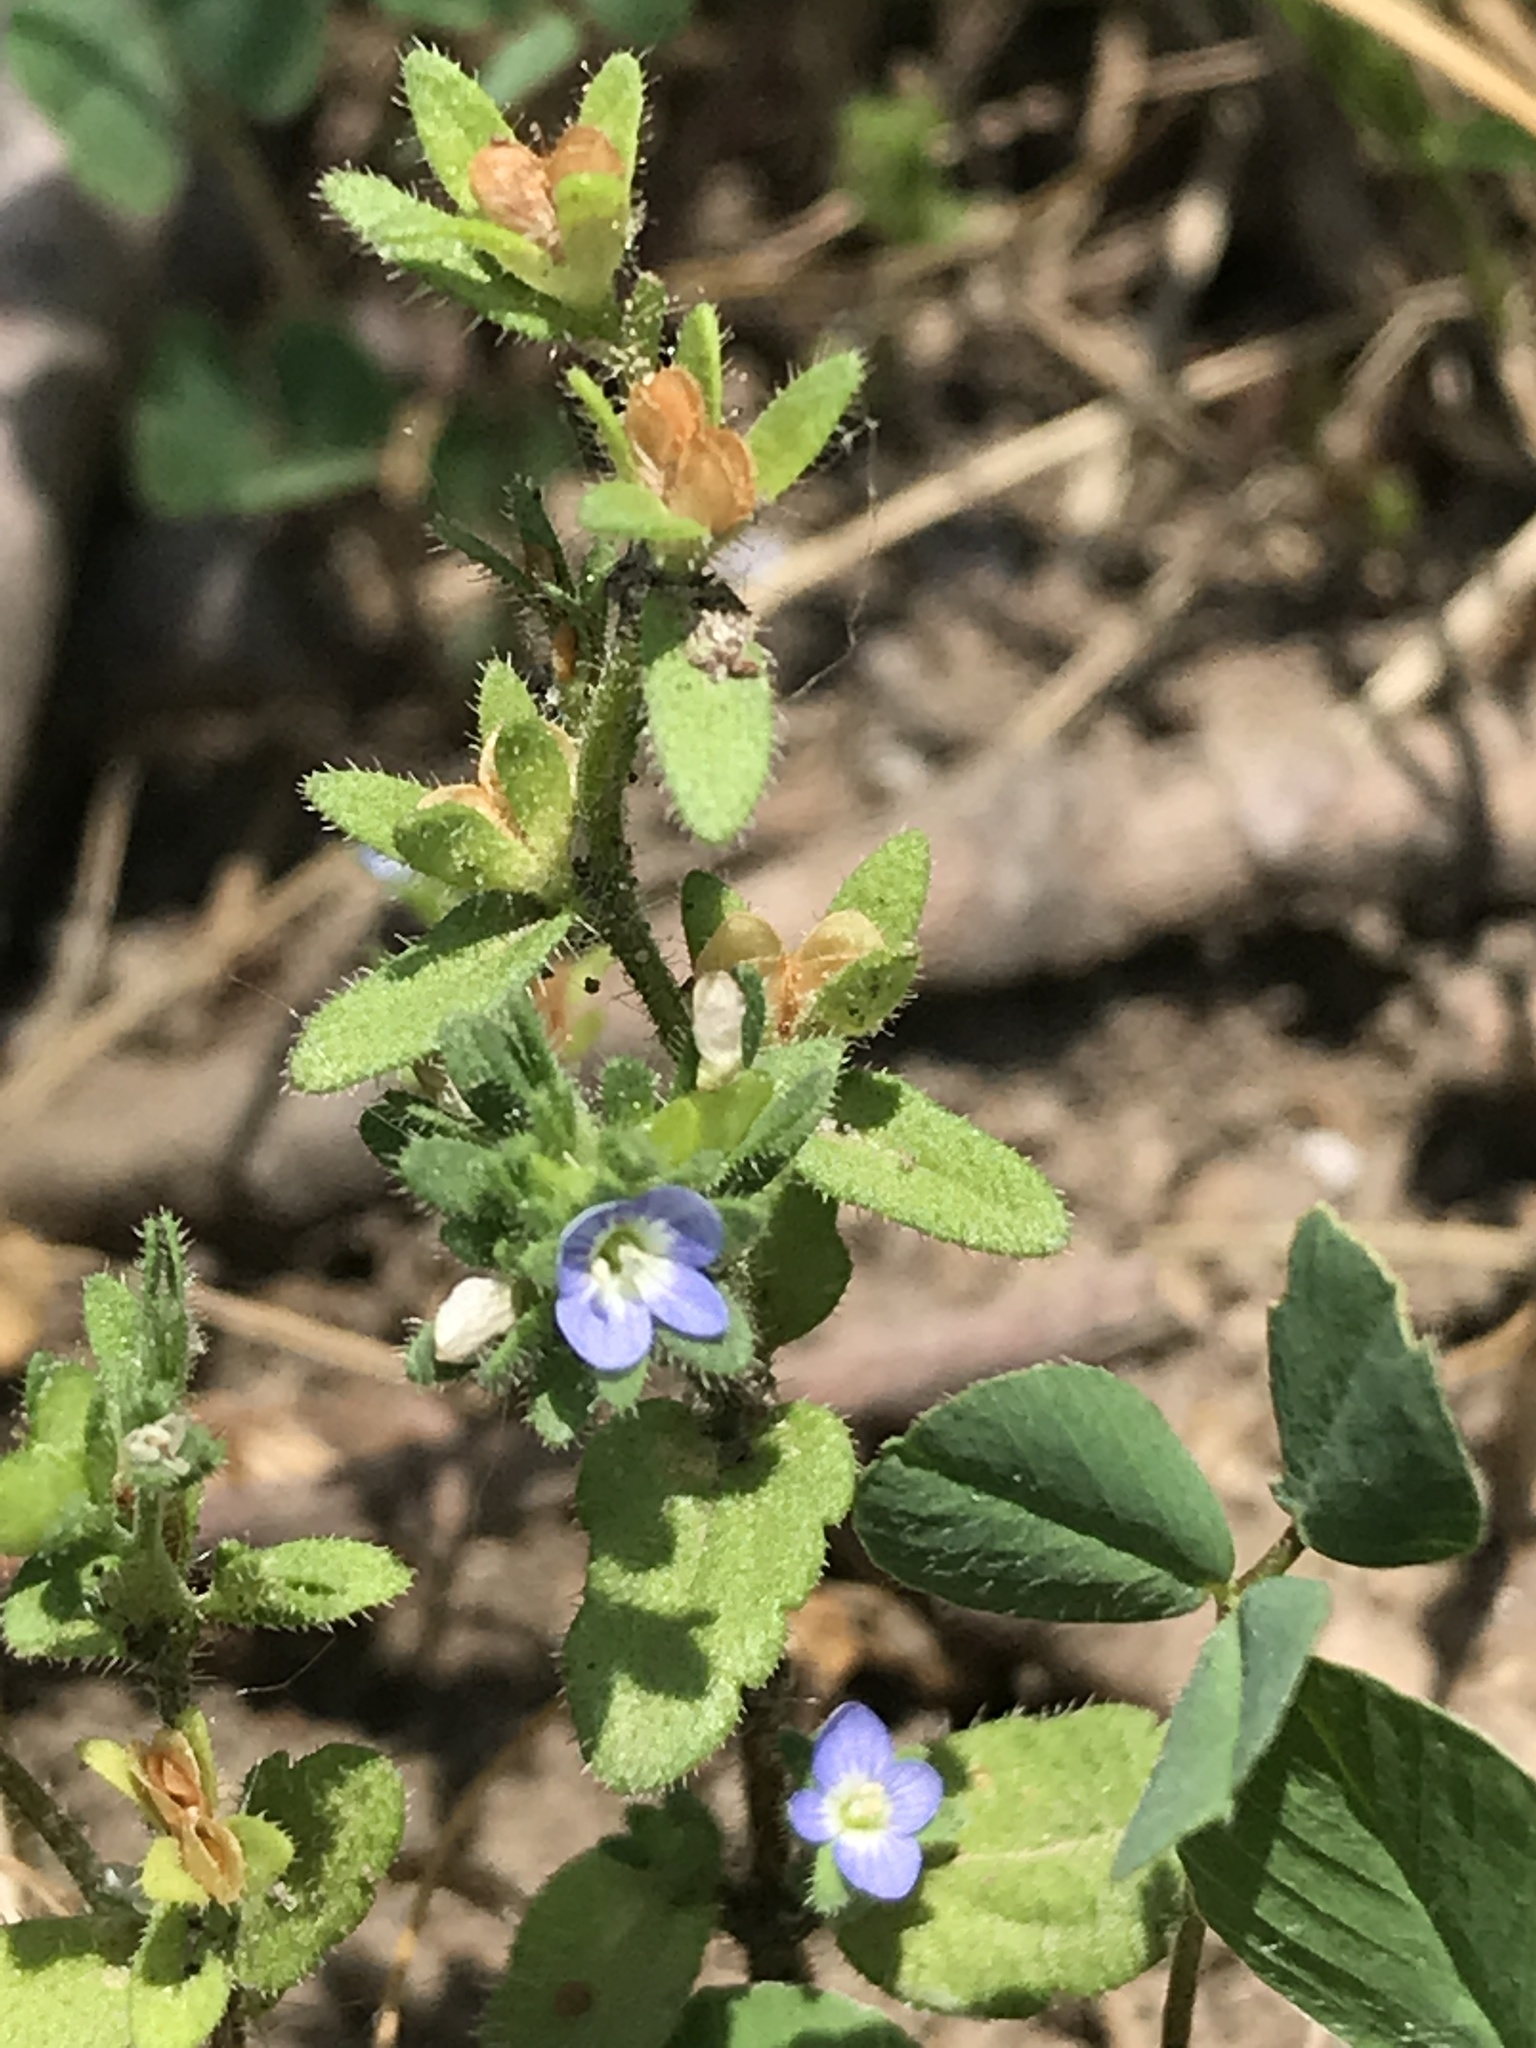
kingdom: Plantae
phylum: Tracheophyta
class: Magnoliopsida
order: Lamiales
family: Plantaginaceae
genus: Veronica
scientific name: Veronica arvensis
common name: Corn speedwell
